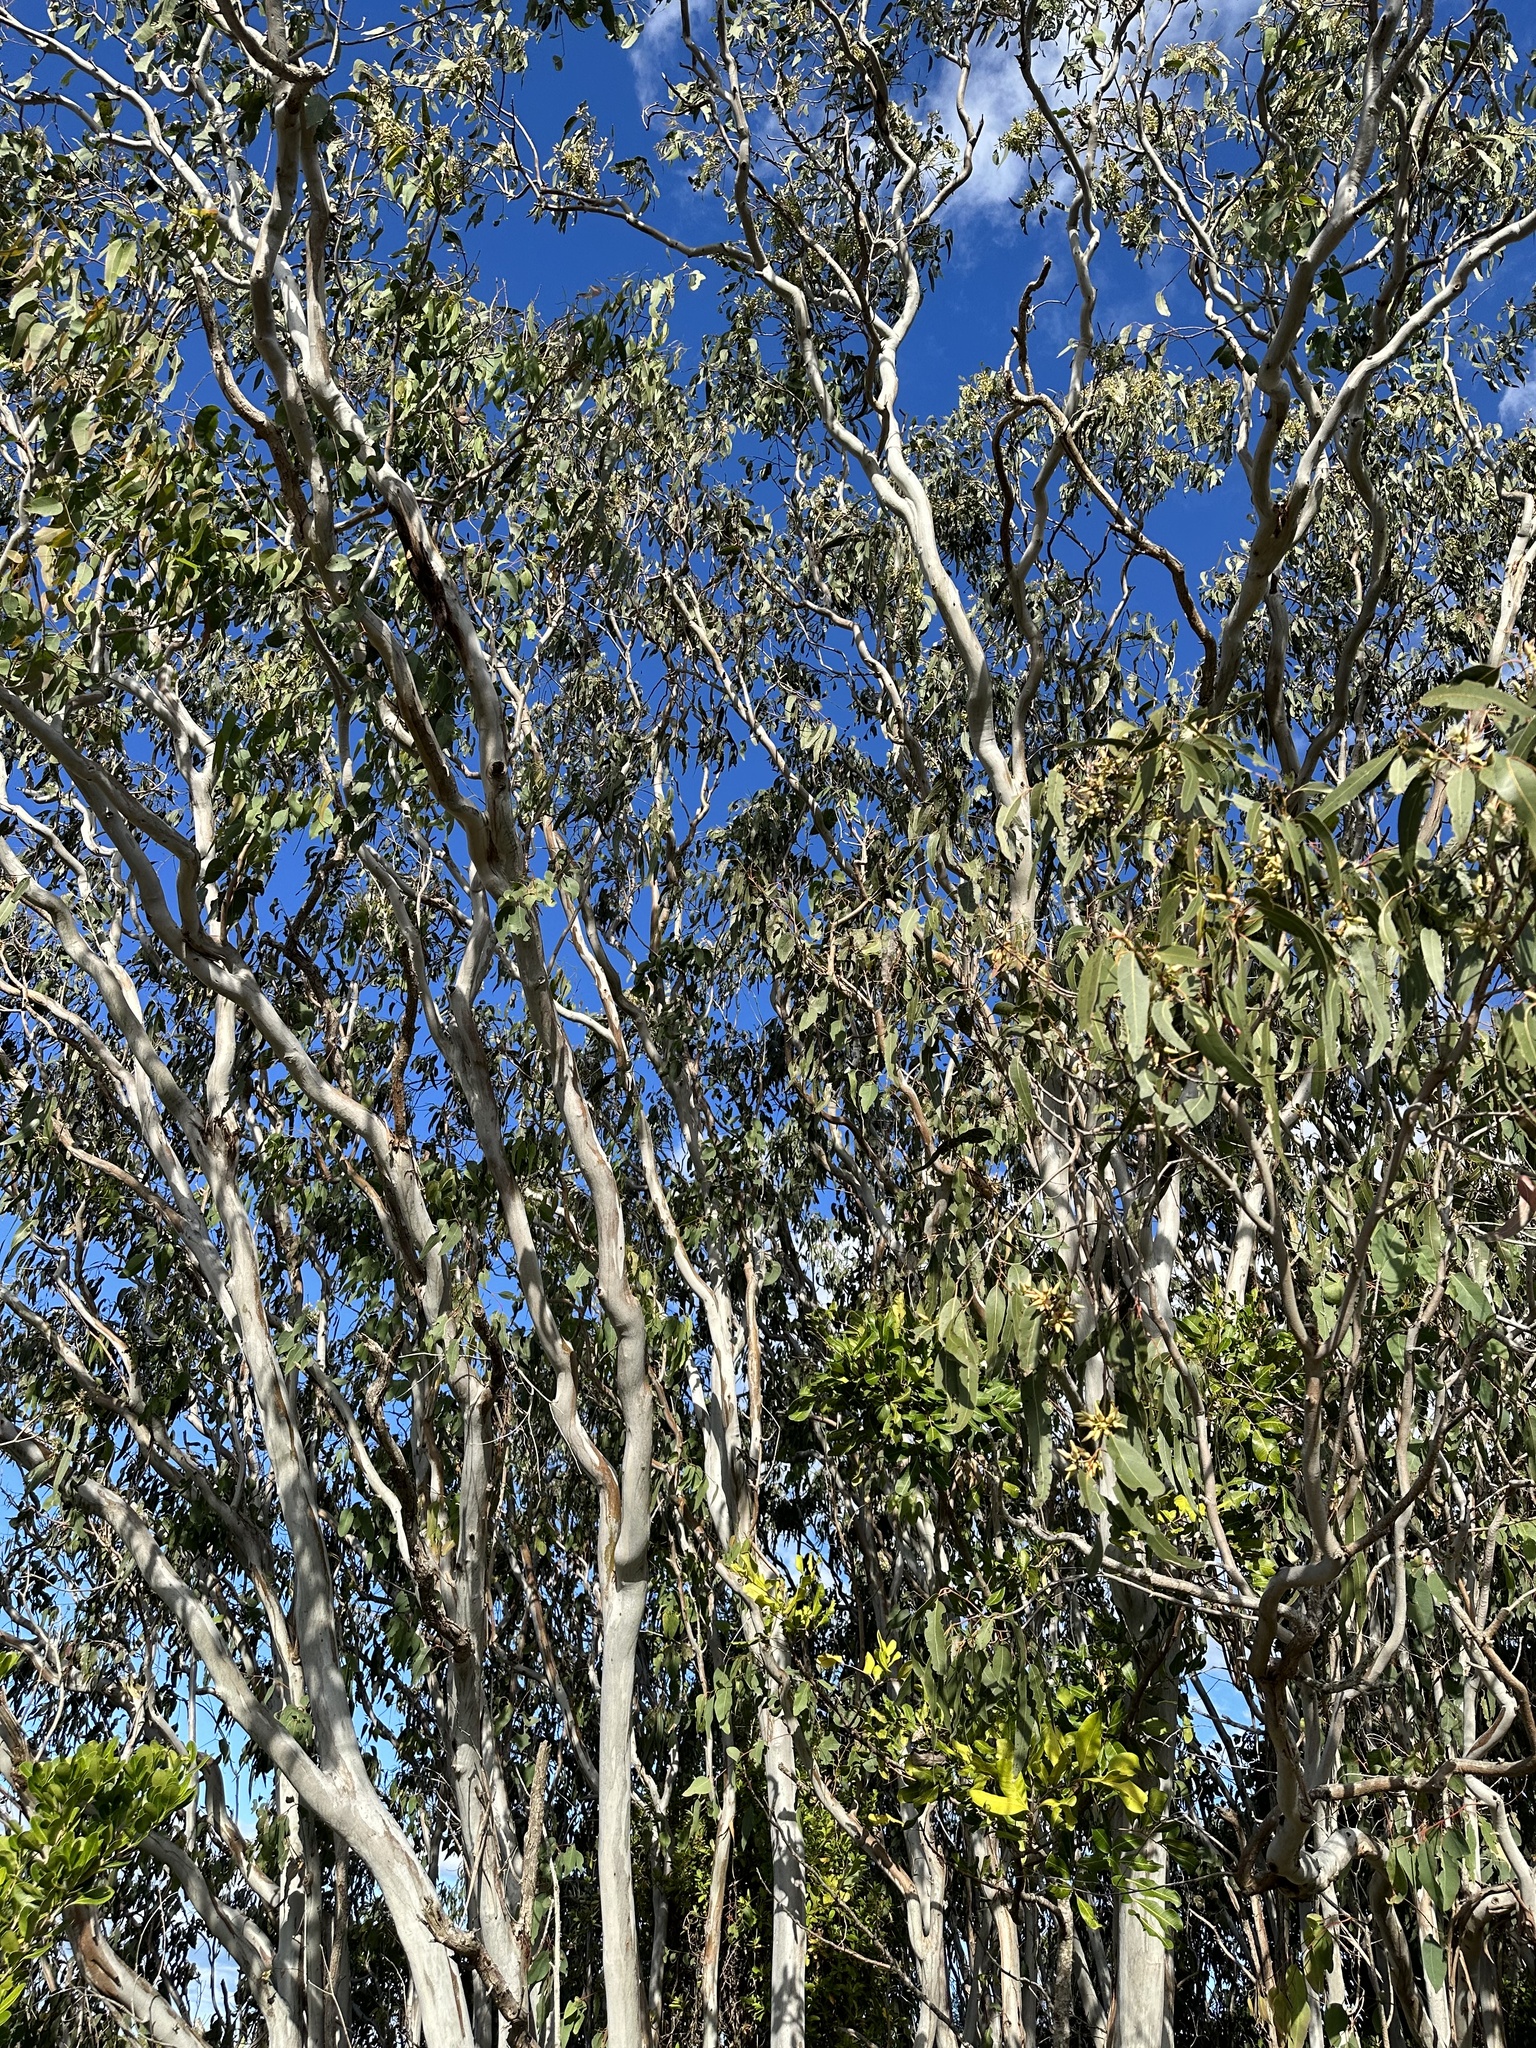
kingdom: Plantae
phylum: Tracheophyta
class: Magnoliopsida
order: Myrtales
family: Myrtaceae
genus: Eucalyptus
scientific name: Eucalyptus tereticornis
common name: Forest redgum
